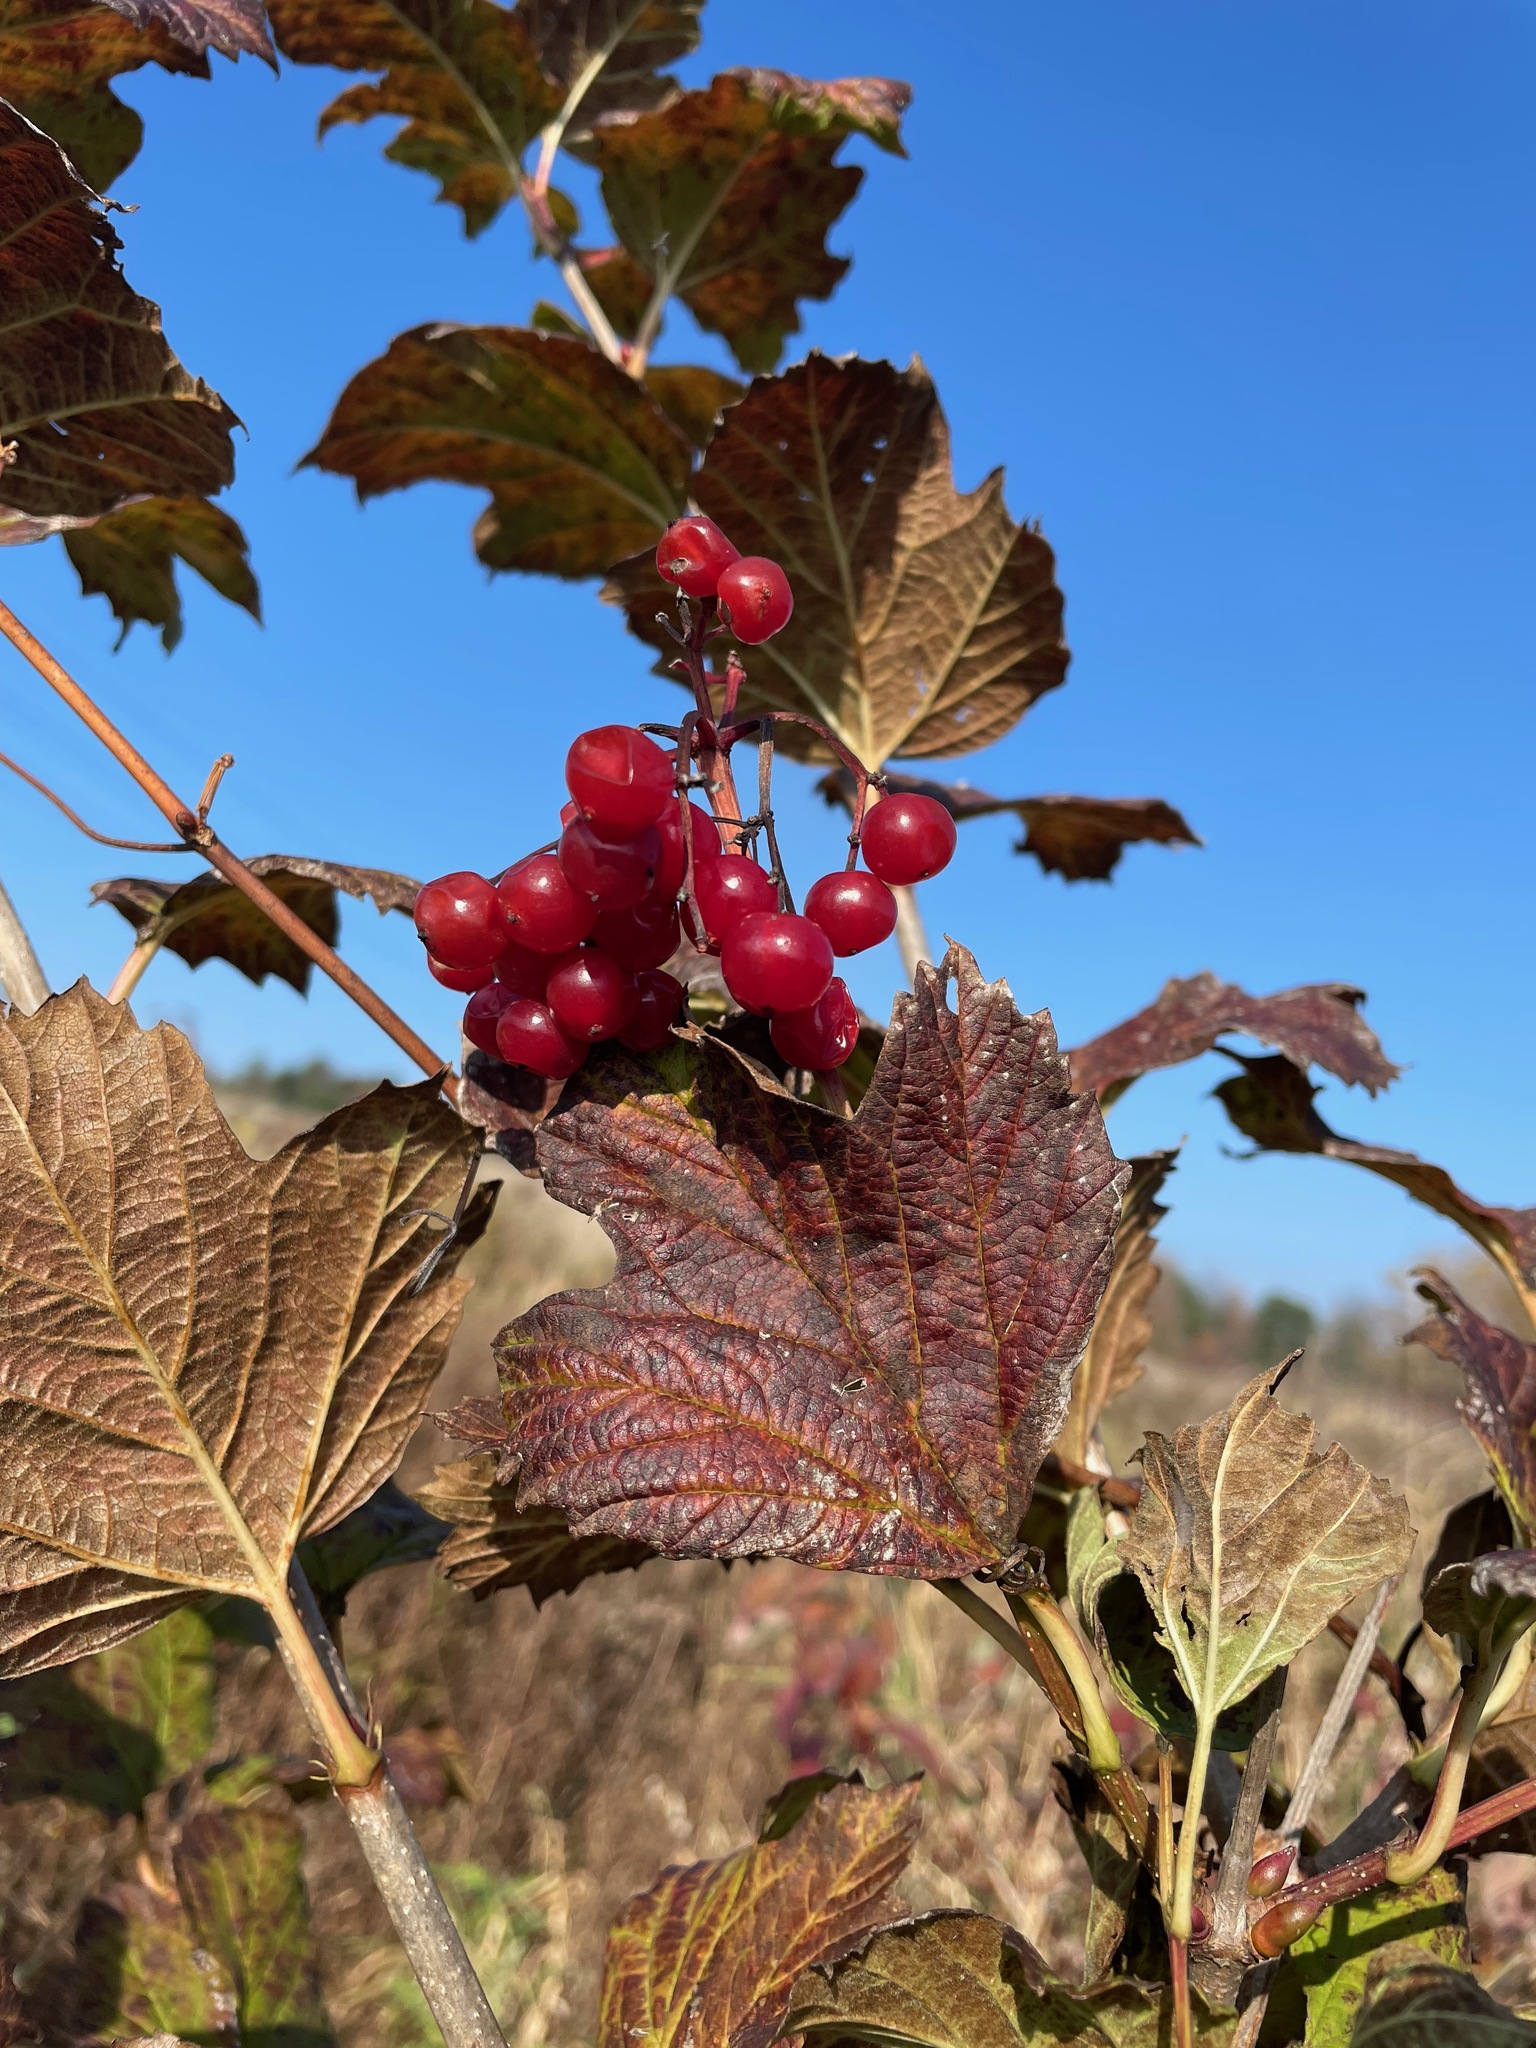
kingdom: Plantae
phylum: Tracheophyta
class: Magnoliopsida
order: Dipsacales
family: Viburnaceae
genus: Viburnum
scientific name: Viburnum opulus
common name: Guelder-rose
